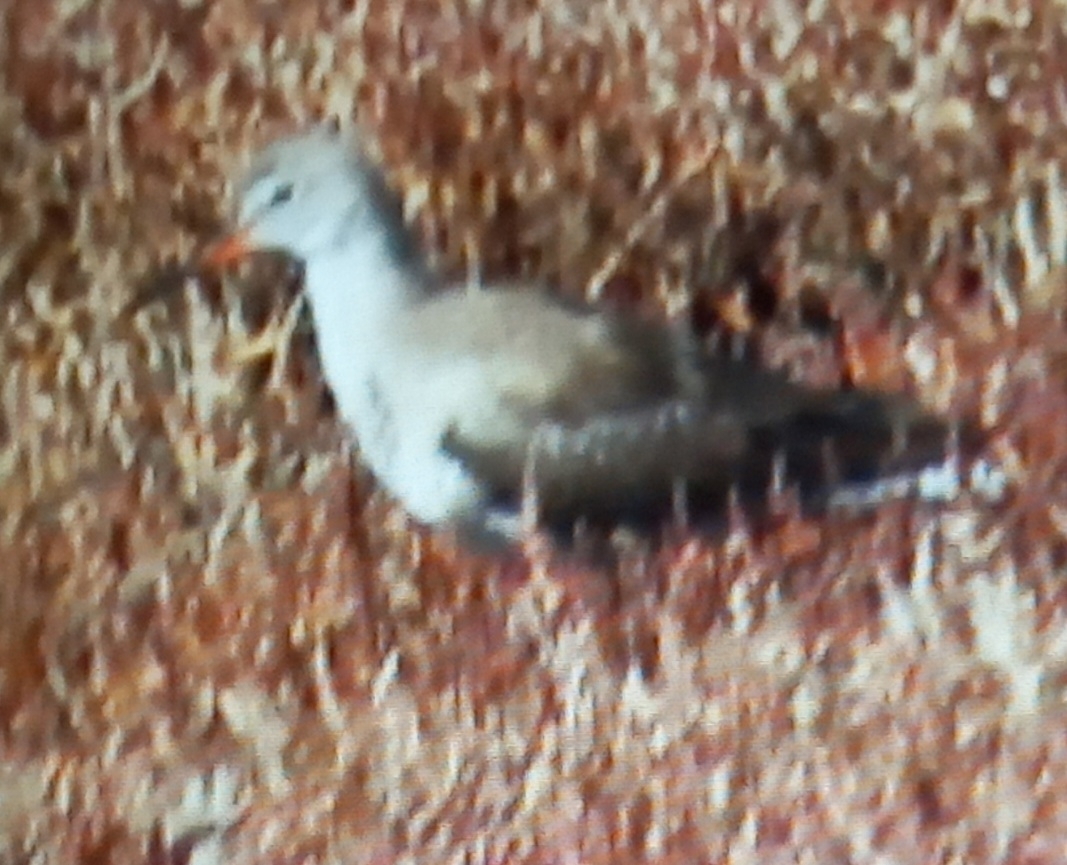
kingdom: Animalia
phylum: Chordata
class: Aves
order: Charadriiformes
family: Scolopacidae
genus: Tringa
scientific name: Tringa erythropus
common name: Spotted redshank
